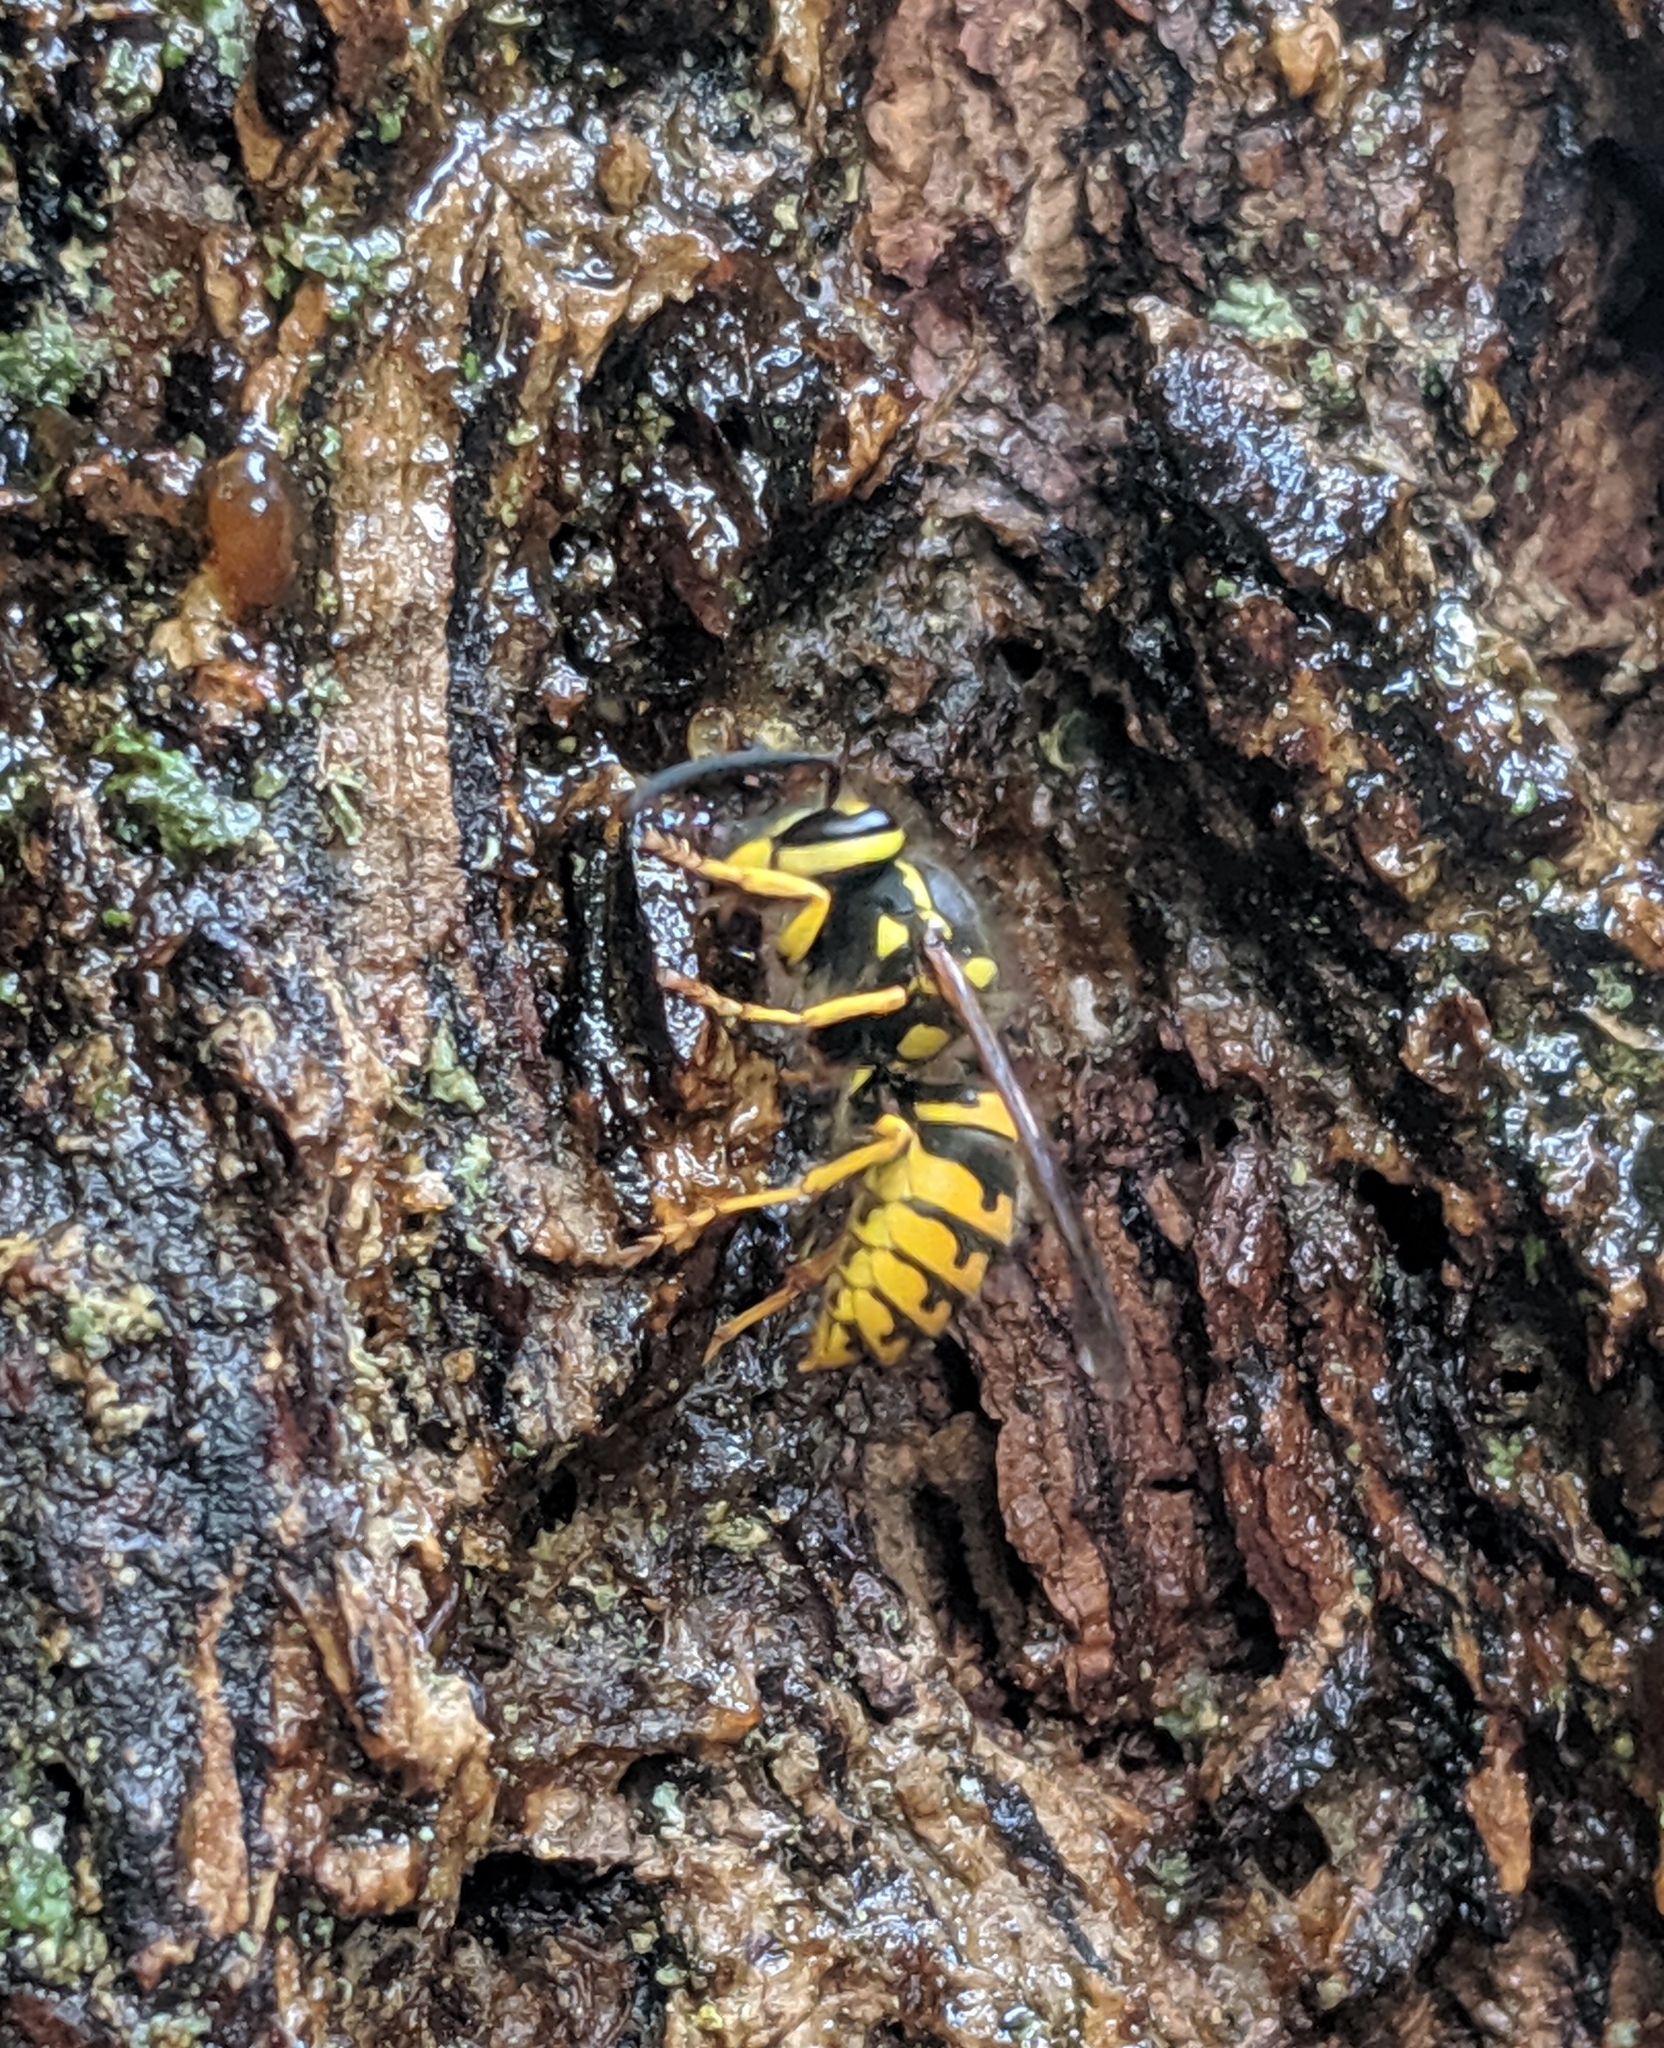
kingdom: Animalia
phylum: Arthropoda
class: Insecta
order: Hymenoptera
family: Vespidae
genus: Vespula
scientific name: Vespula pensylvanica
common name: Western yellowjacket
